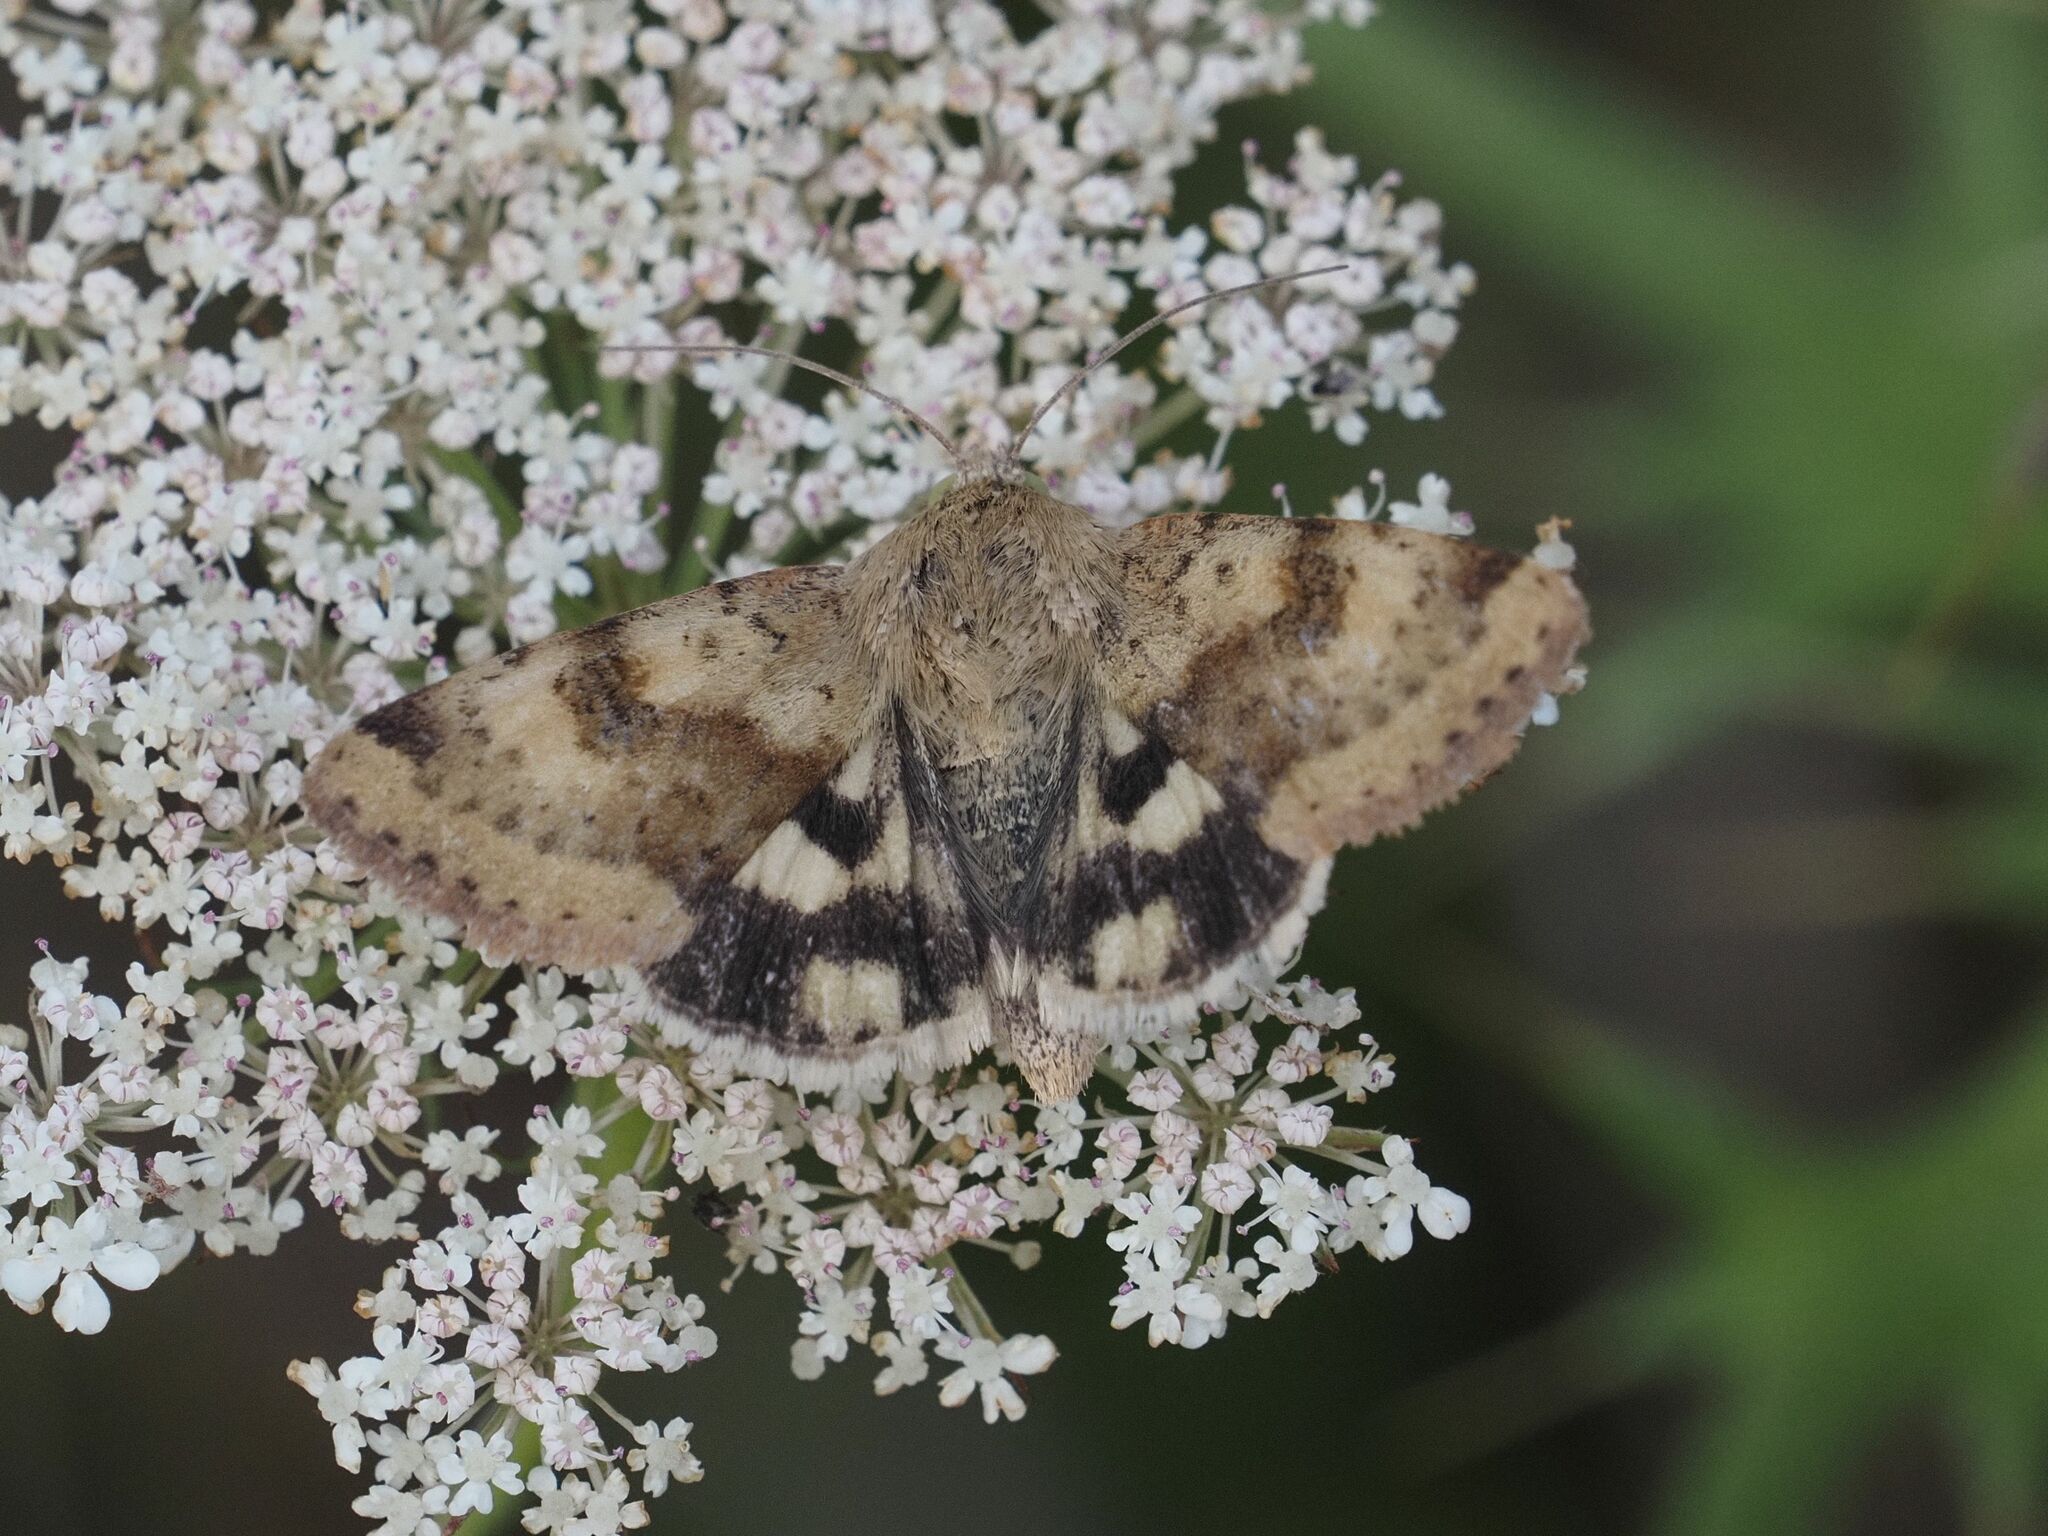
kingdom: Animalia
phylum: Arthropoda
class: Insecta
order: Lepidoptera
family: Noctuidae
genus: Heliothis
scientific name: Heliothis viriplaca
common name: Marbled clover
